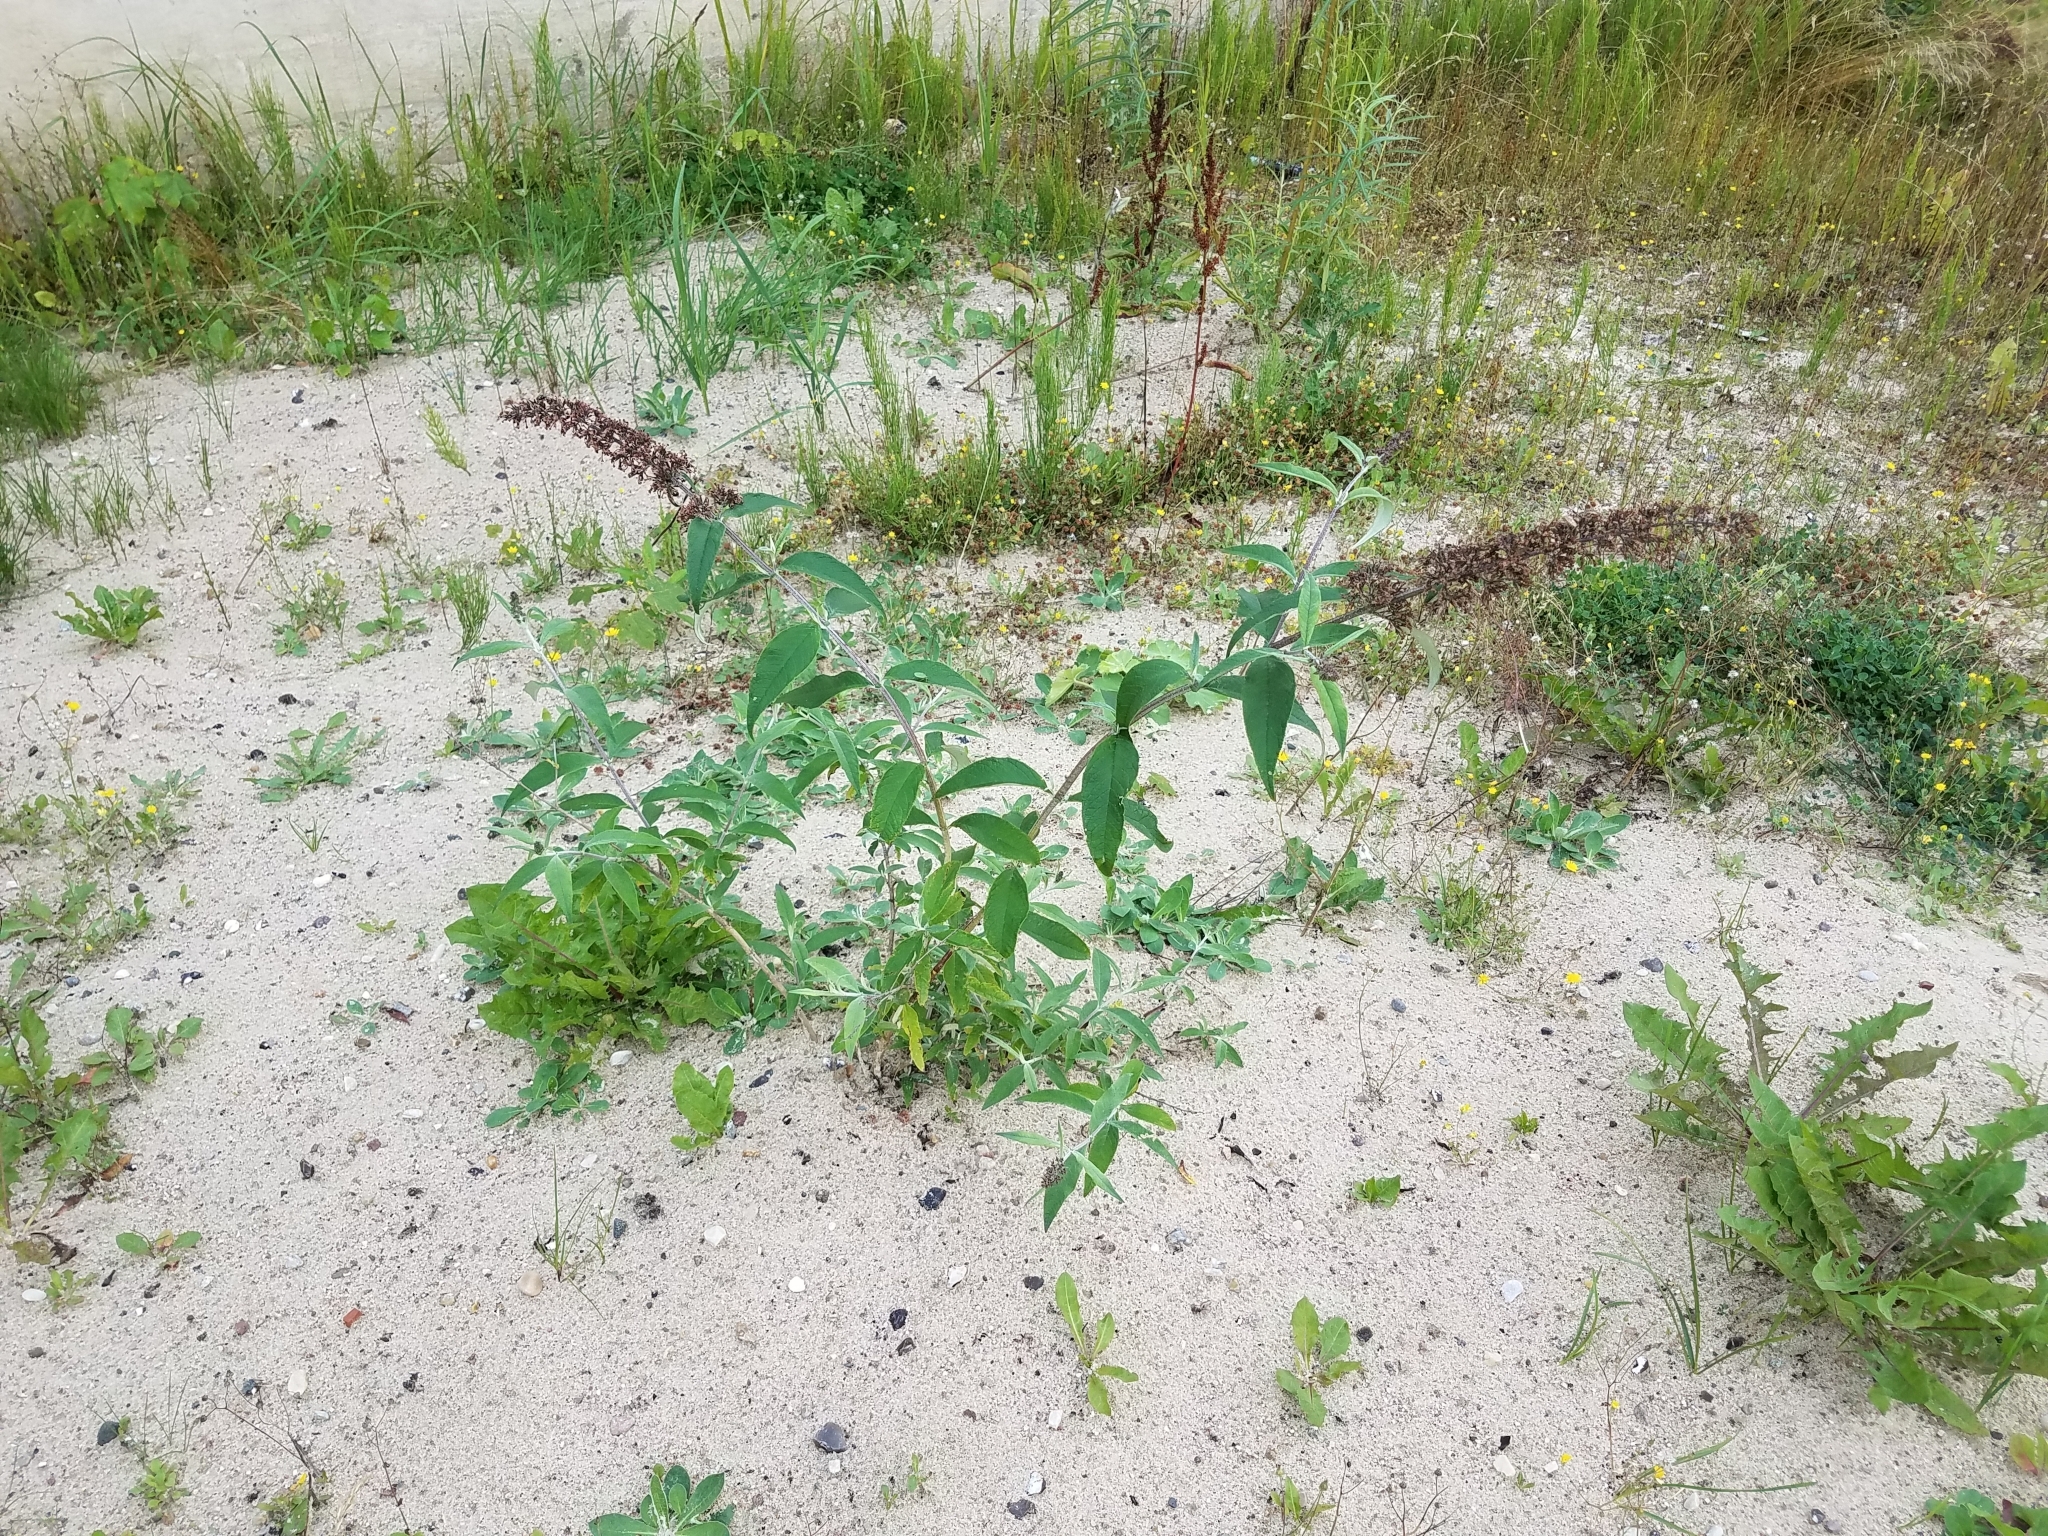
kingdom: Plantae
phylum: Tracheophyta
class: Magnoliopsida
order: Lamiales
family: Scrophulariaceae
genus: Buddleja
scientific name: Buddleja davidii
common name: Butterfly-bush
